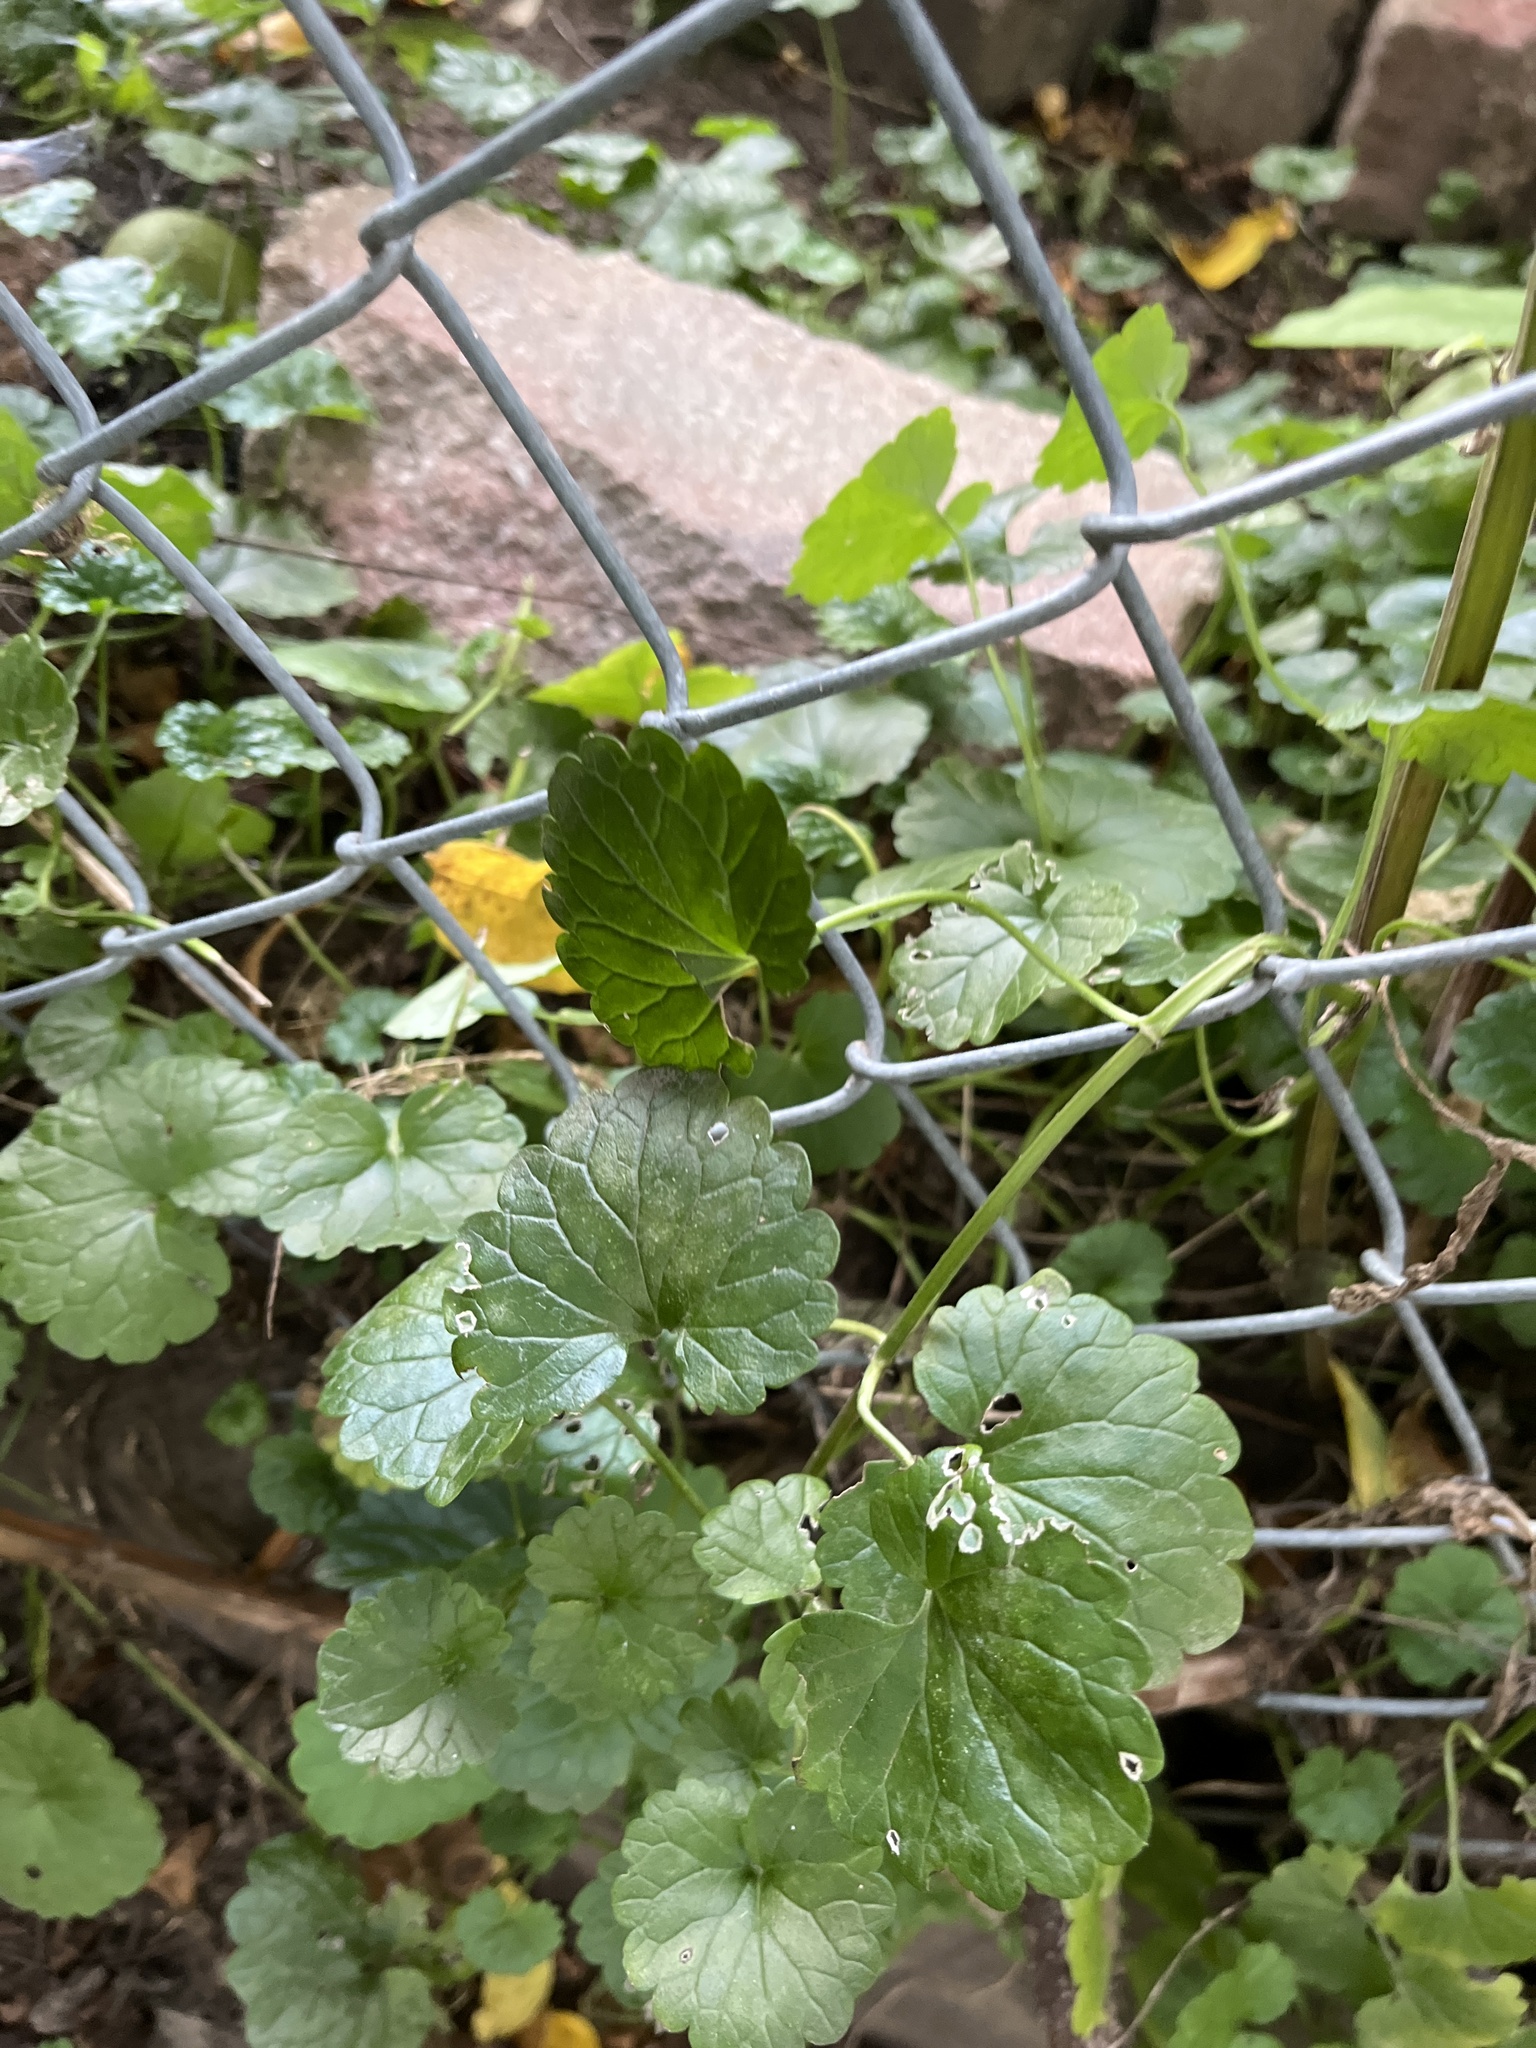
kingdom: Plantae
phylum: Tracheophyta
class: Magnoliopsida
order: Lamiales
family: Lamiaceae
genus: Glechoma
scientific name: Glechoma hederacea
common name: Ground ivy
